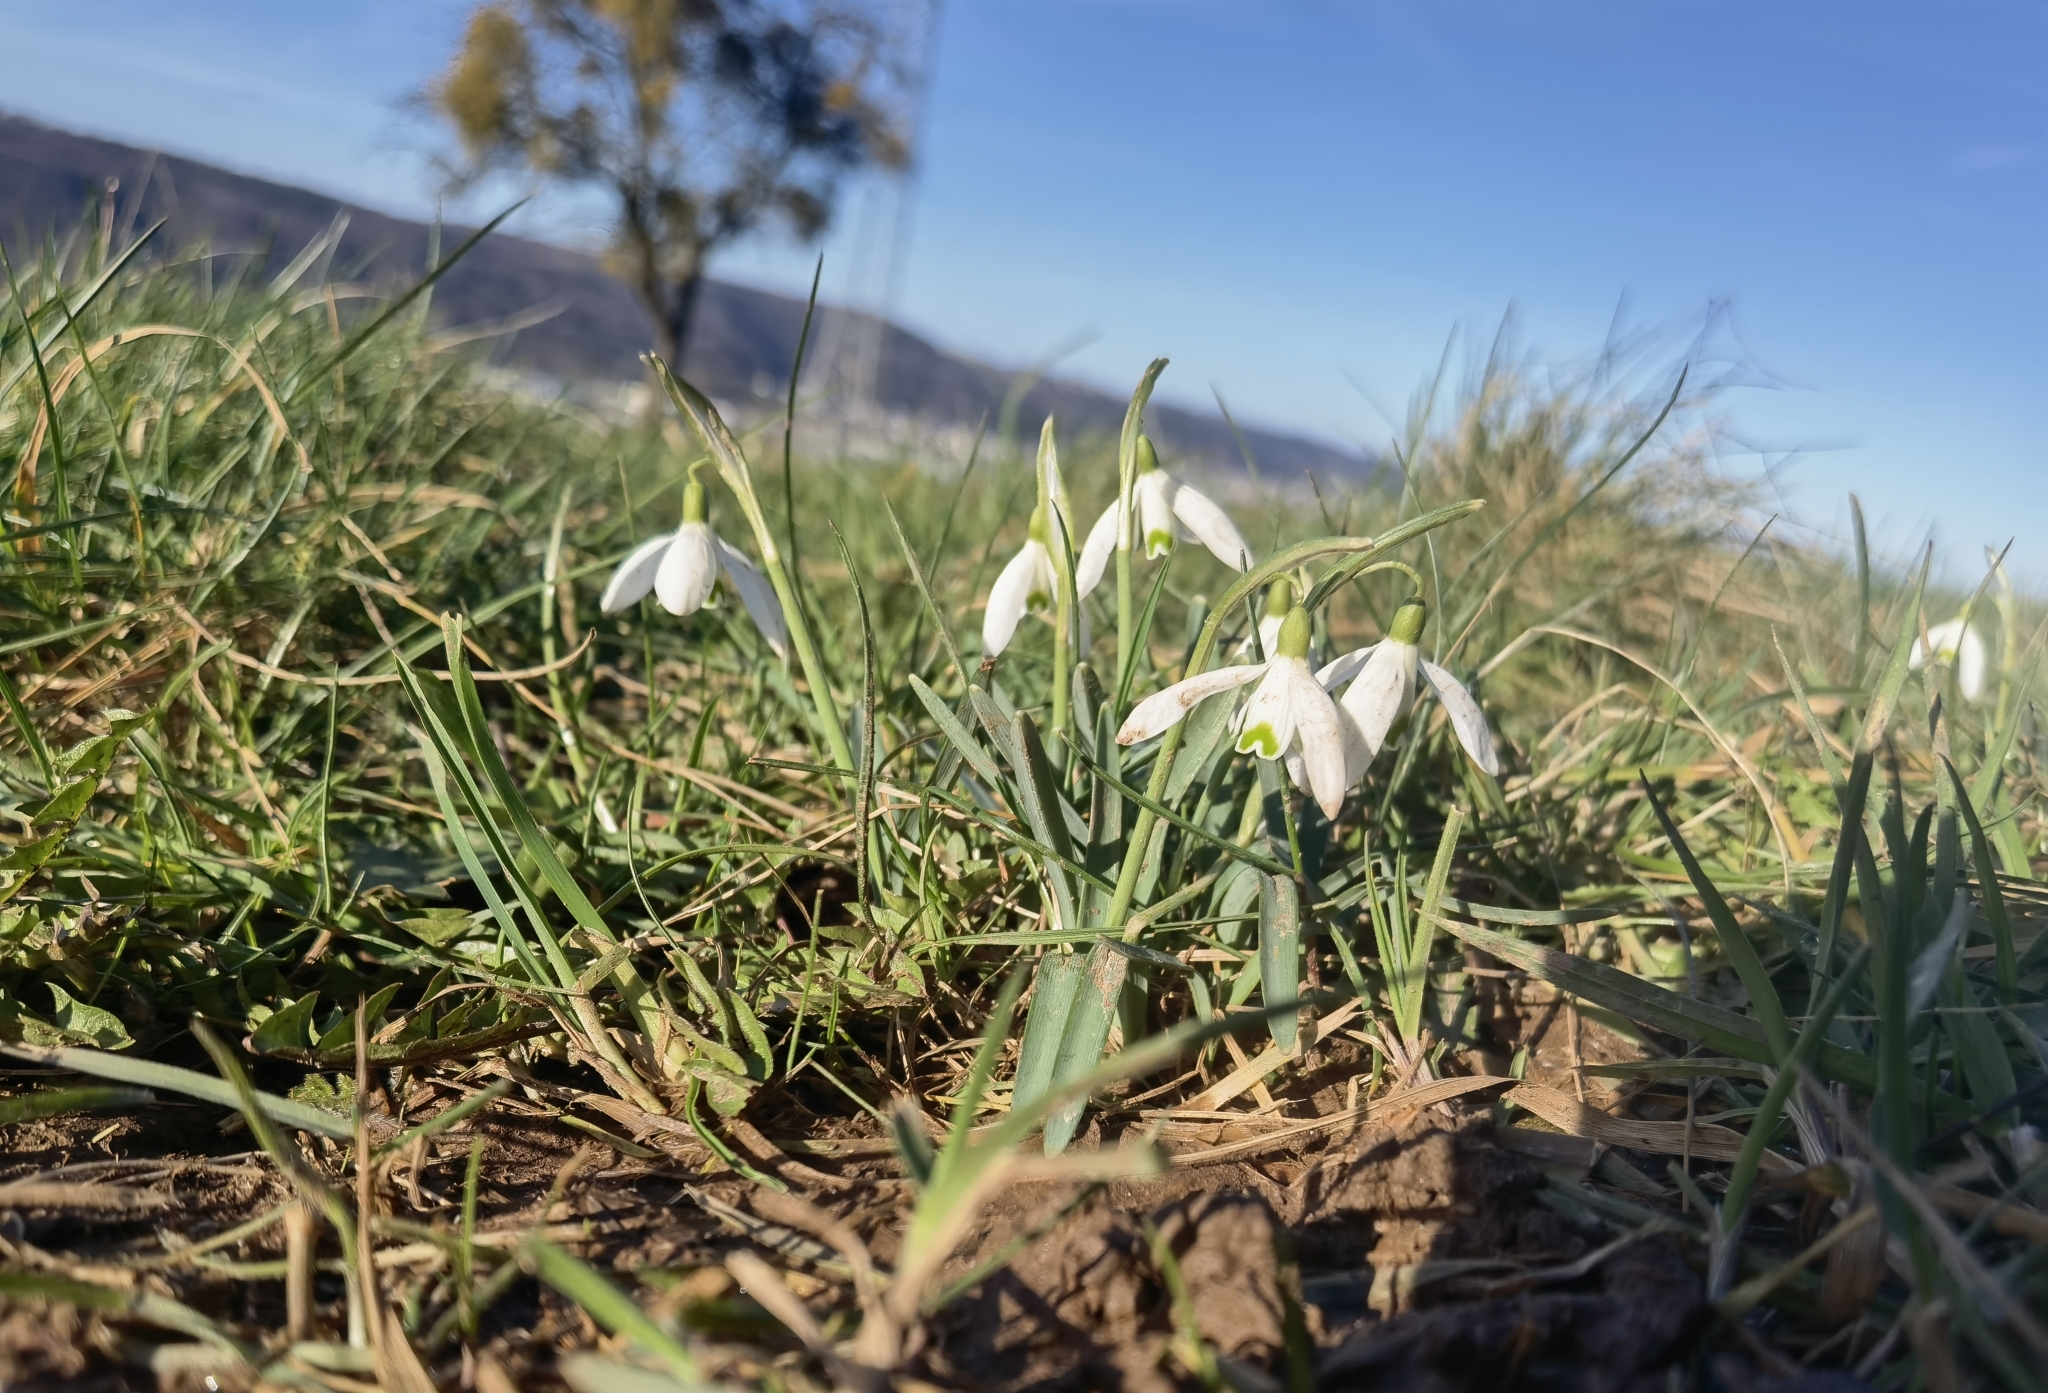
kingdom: Plantae
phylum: Tracheophyta
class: Liliopsida
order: Asparagales
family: Amaryllidaceae
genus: Galanthus
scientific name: Galanthus nivalis
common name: Snowdrop
